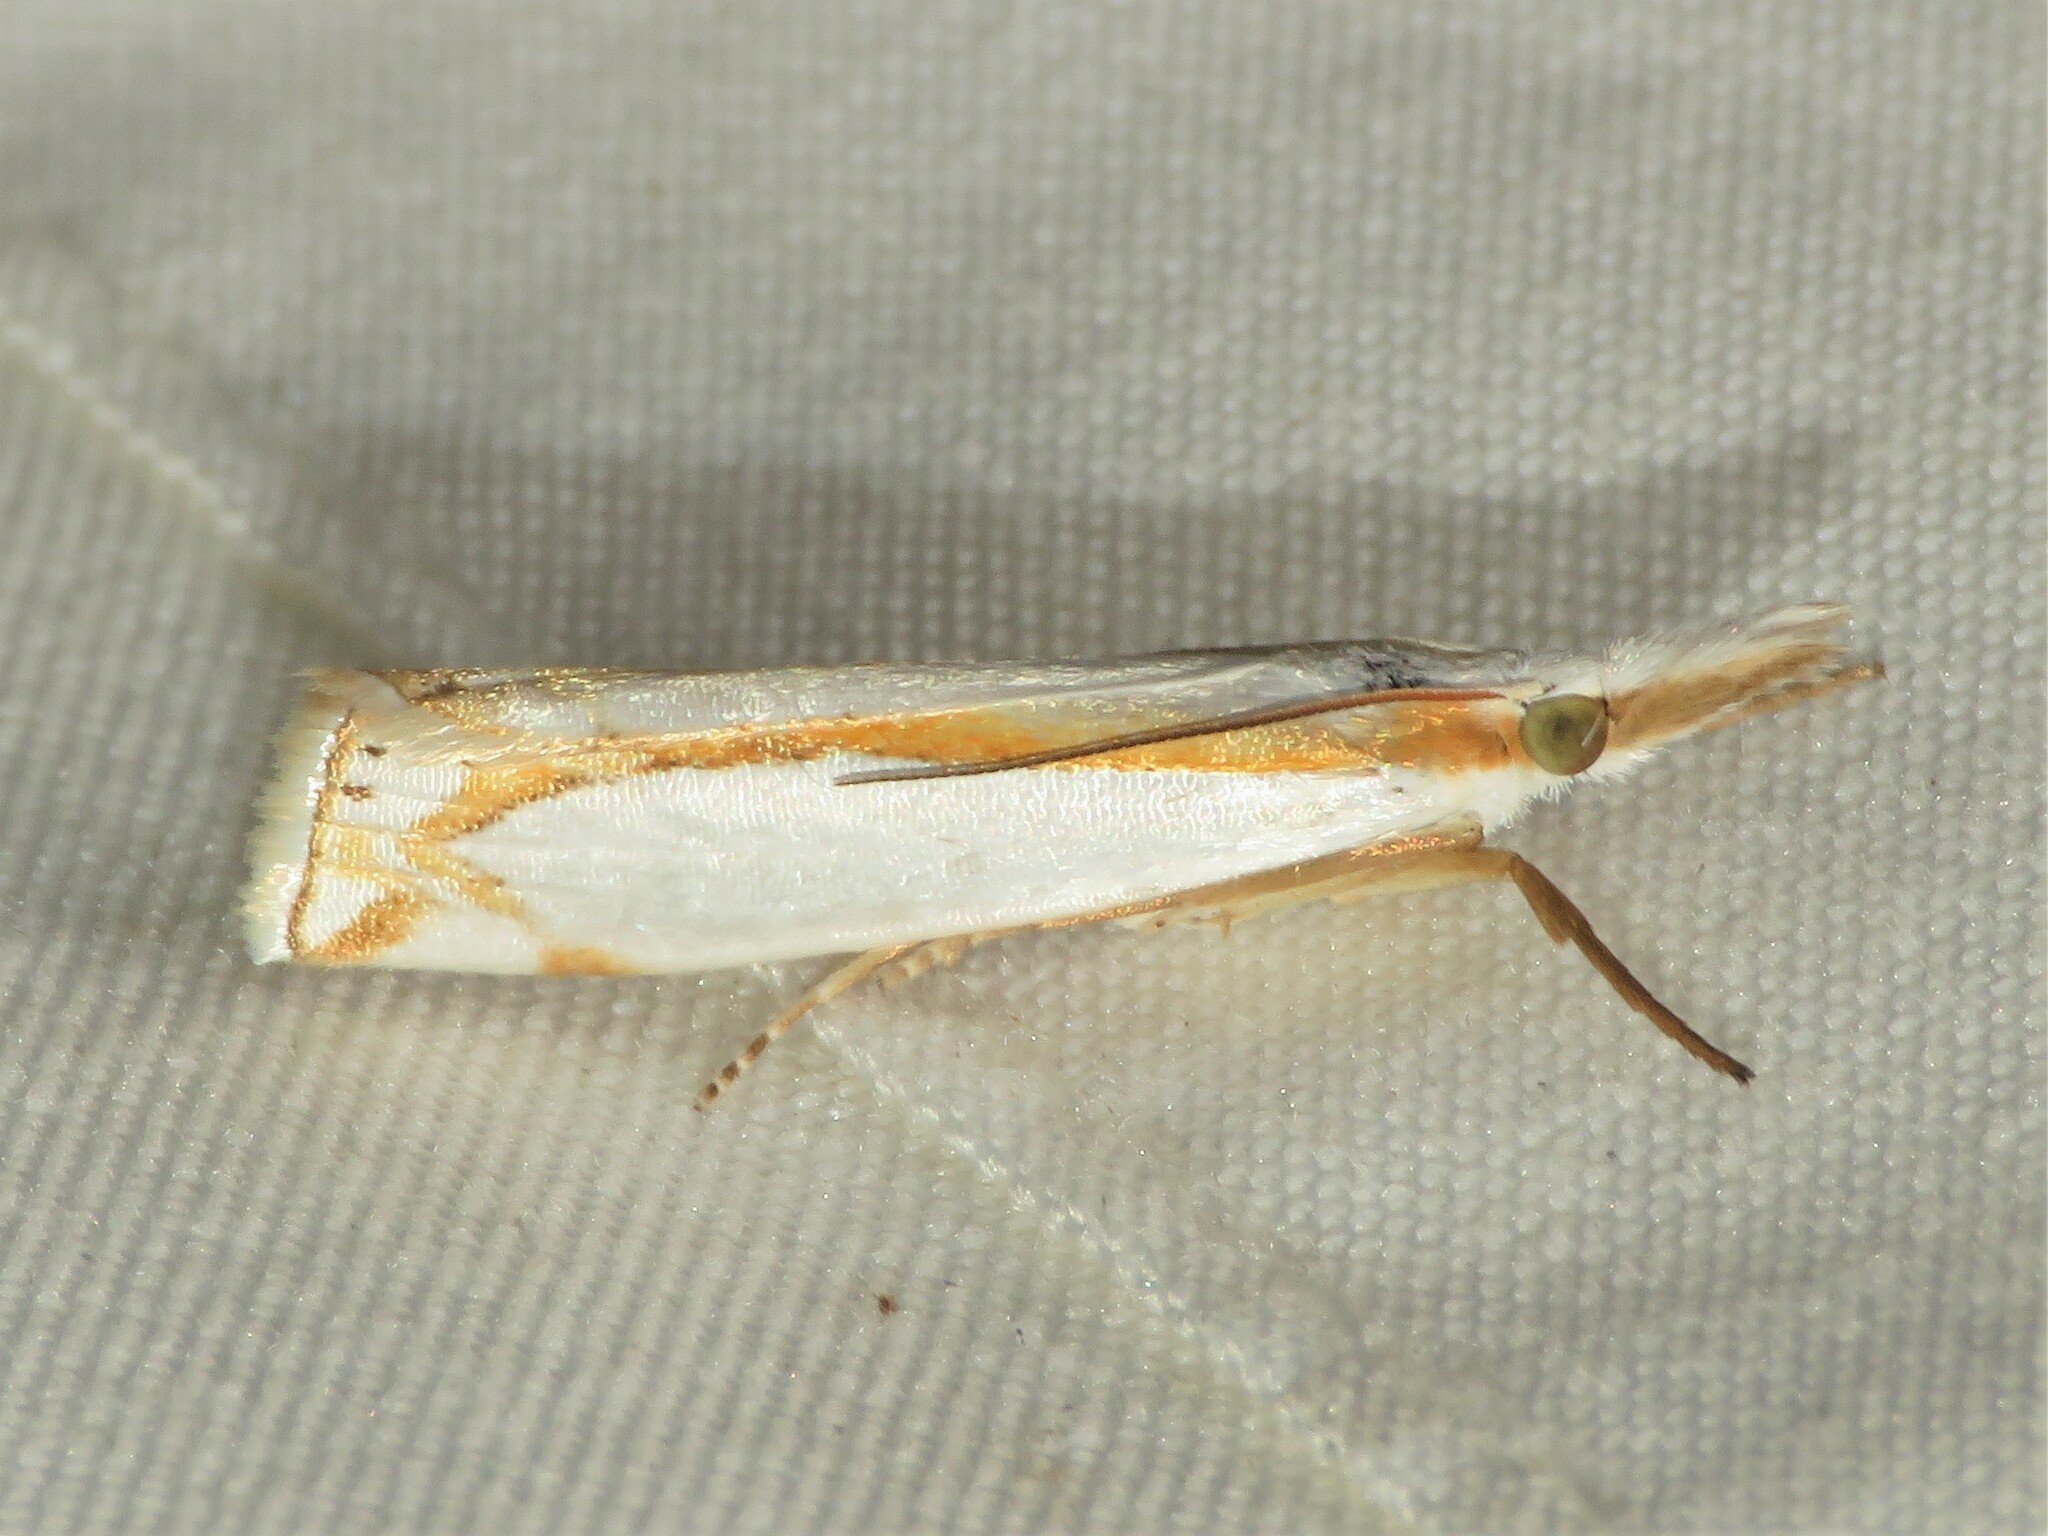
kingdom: Animalia
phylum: Arthropoda
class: Insecta
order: Lepidoptera
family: Crambidae
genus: Crambus
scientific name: Crambus girardellus
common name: Girard's grass-veneer
